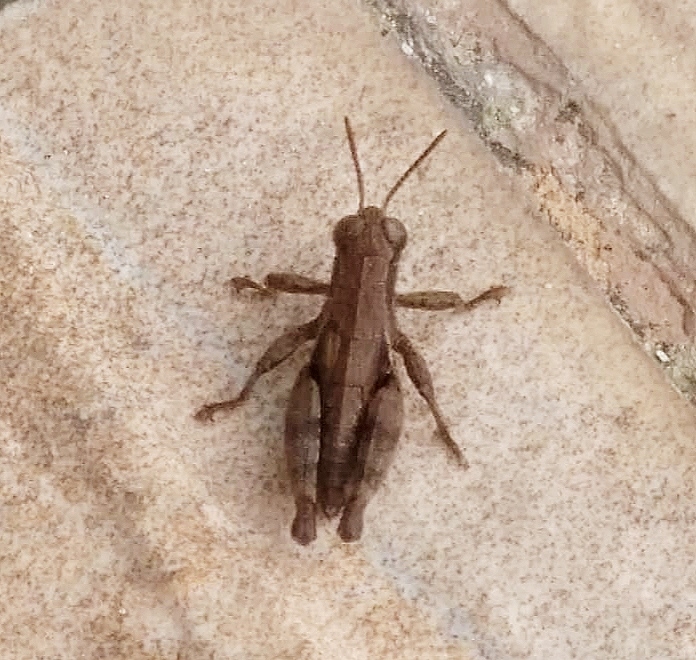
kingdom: Animalia
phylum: Arthropoda
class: Insecta
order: Orthoptera
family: Acrididae
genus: Pezotettix
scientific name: Pezotettix giornae
